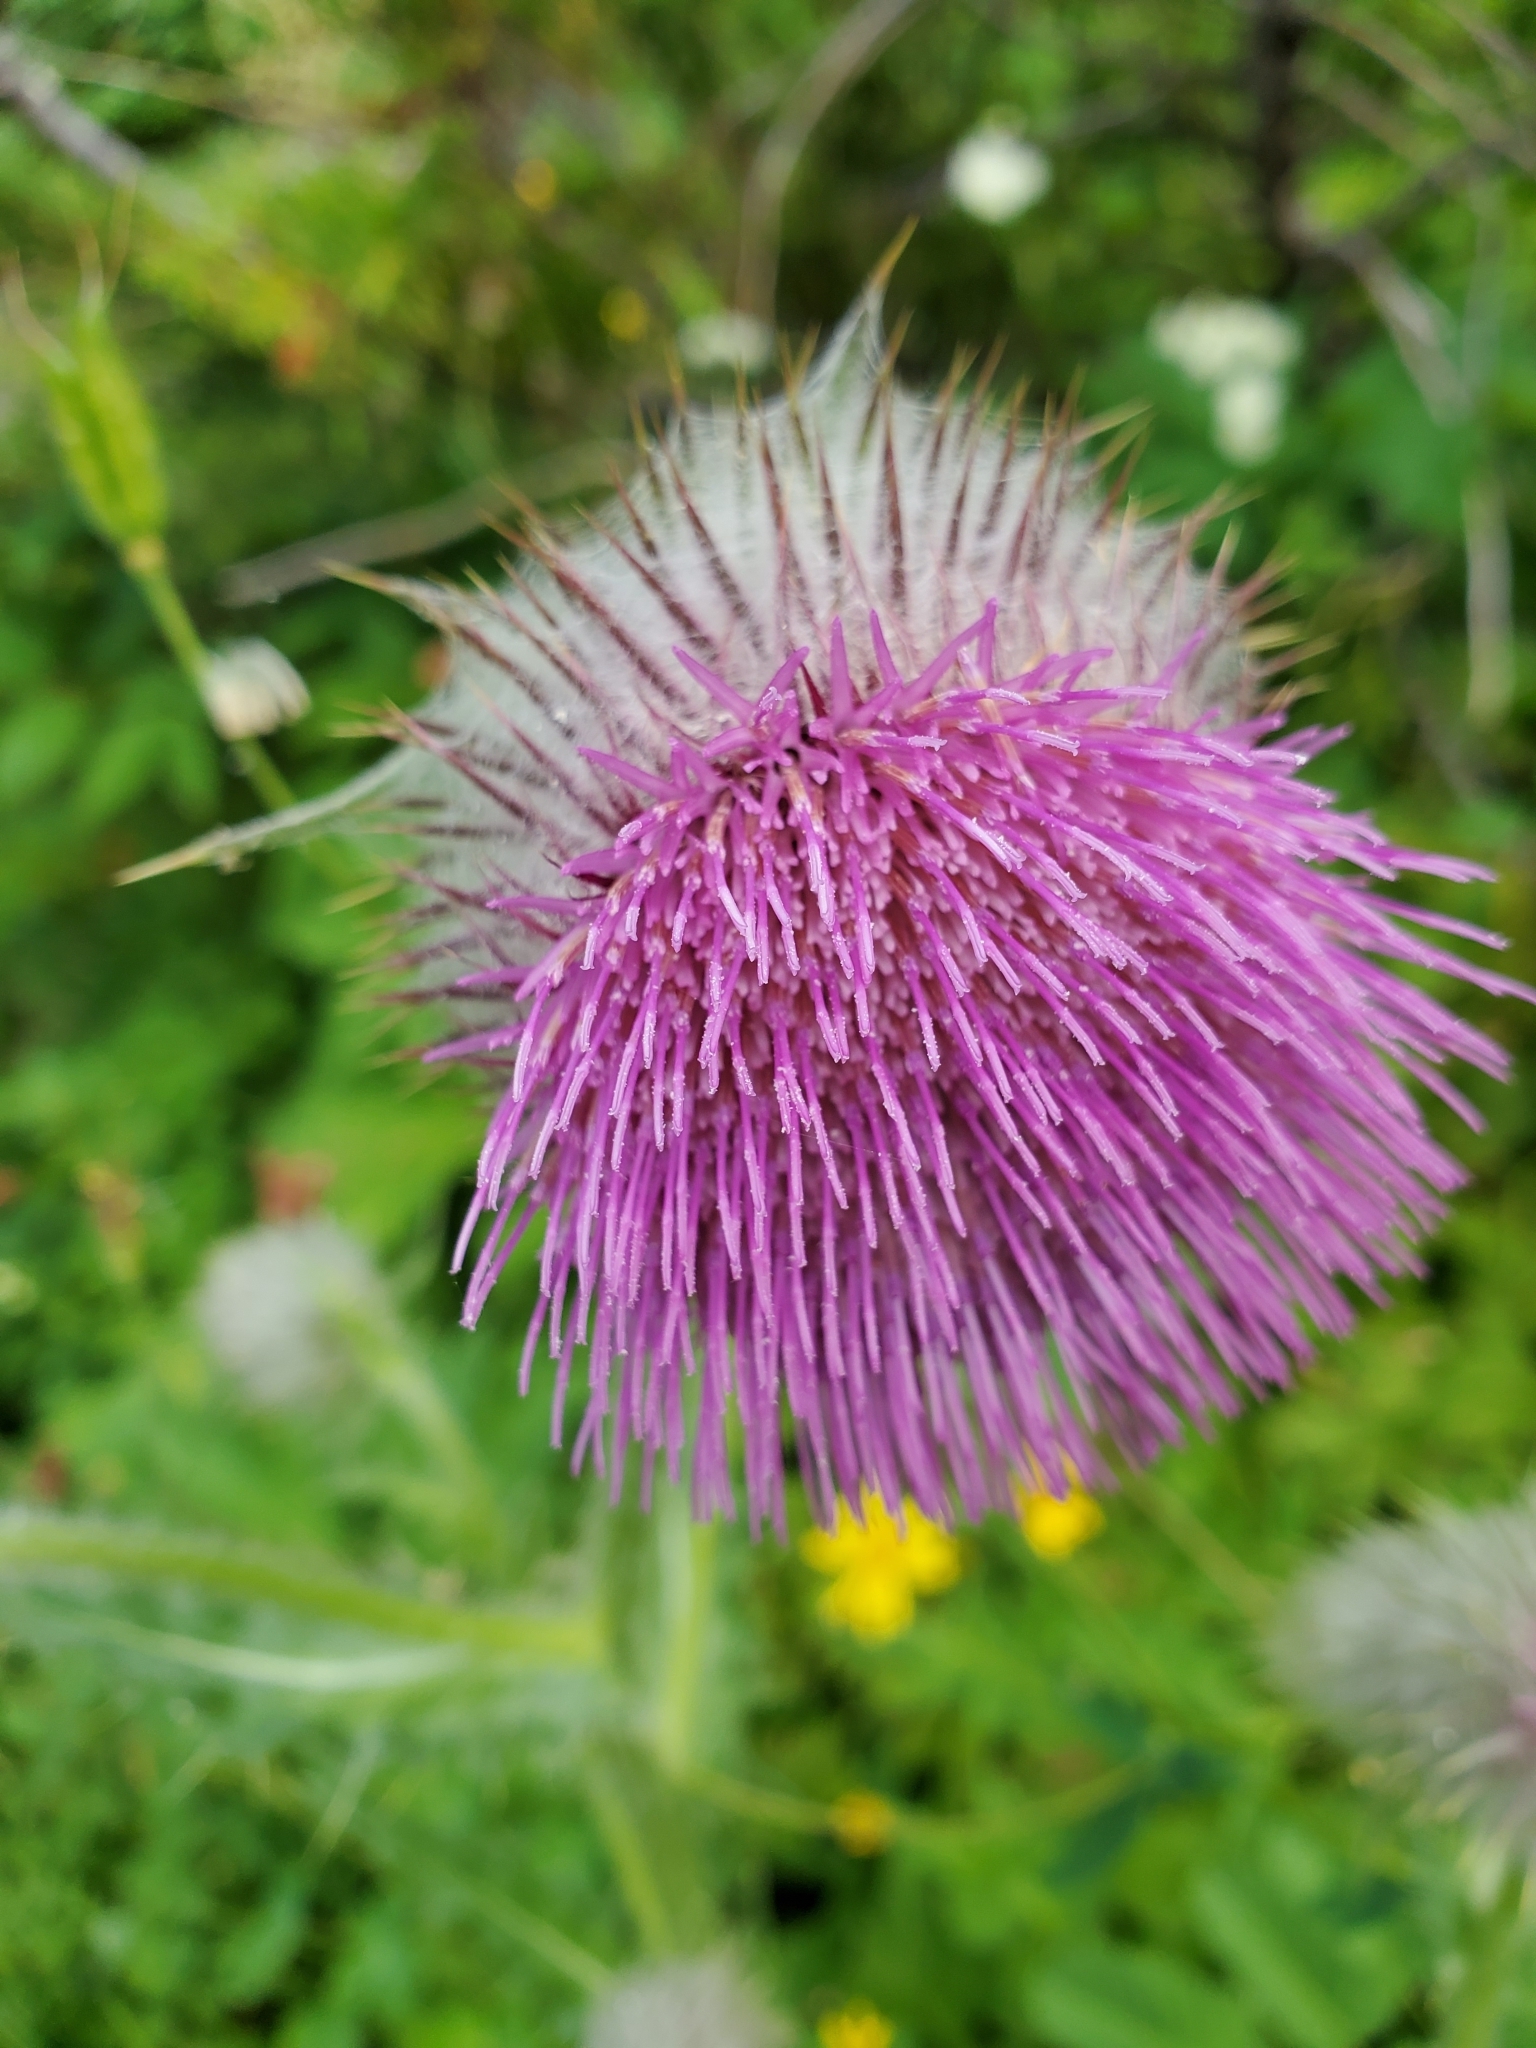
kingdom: Plantae
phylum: Tracheophyta
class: Magnoliopsida
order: Asterales
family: Asteraceae
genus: Cirsium
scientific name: Cirsium edule
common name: Indian thistle
